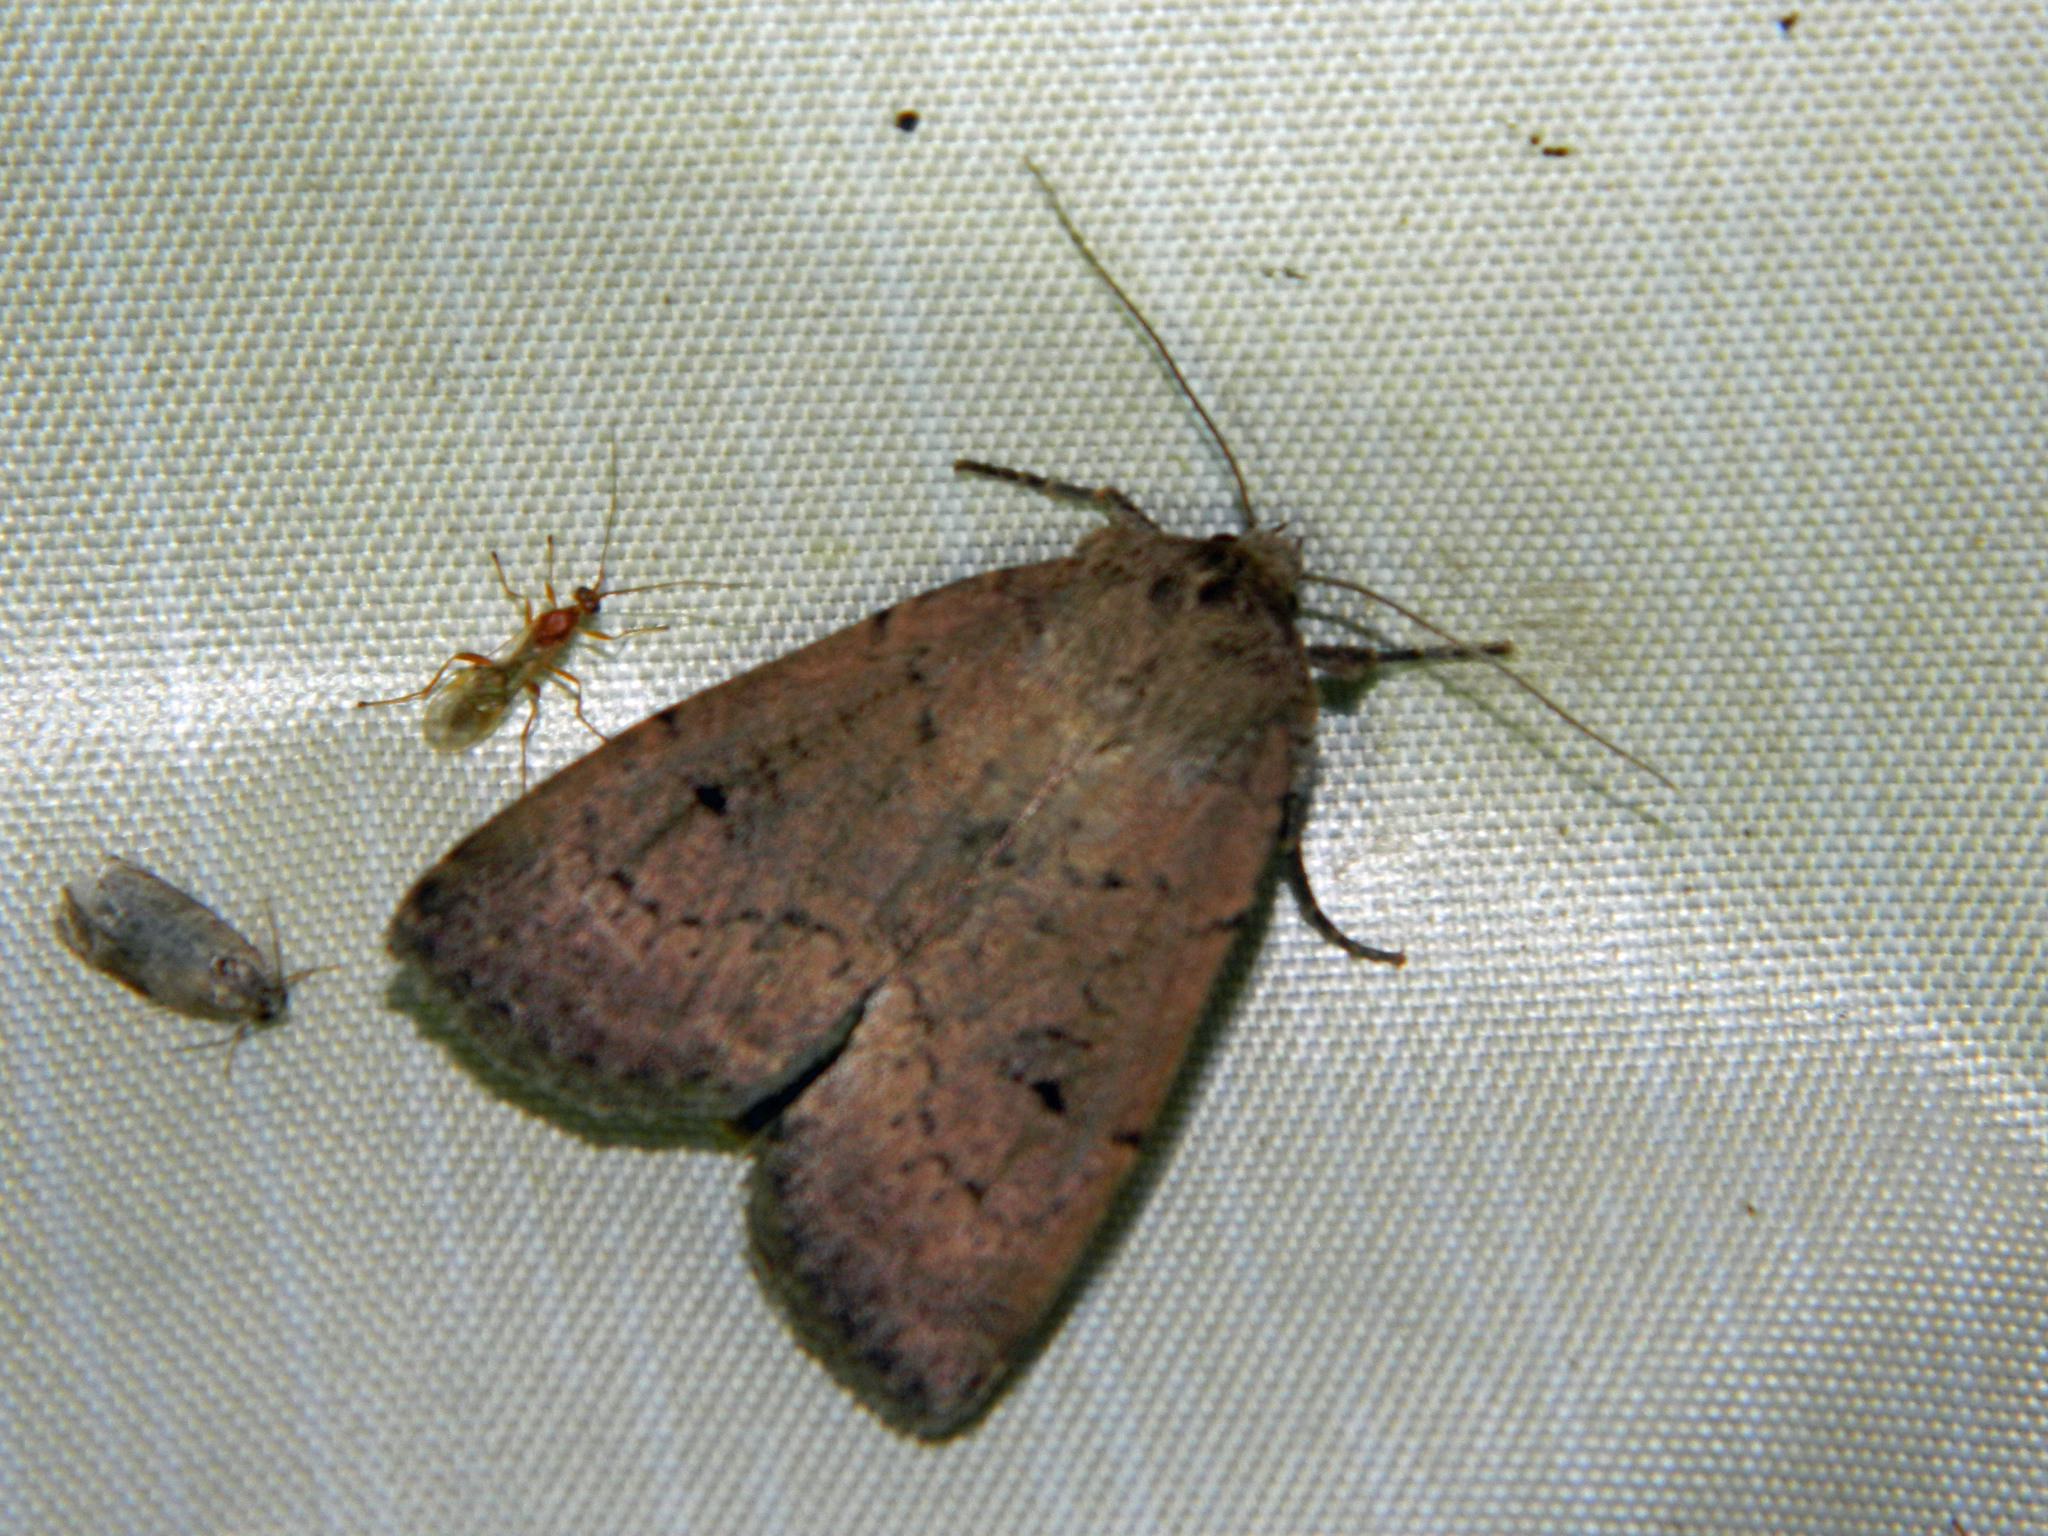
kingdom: Animalia
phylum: Arthropoda
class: Insecta
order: Lepidoptera
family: Noctuidae
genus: Graphiphora
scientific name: Graphiphora augur
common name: Double dart
